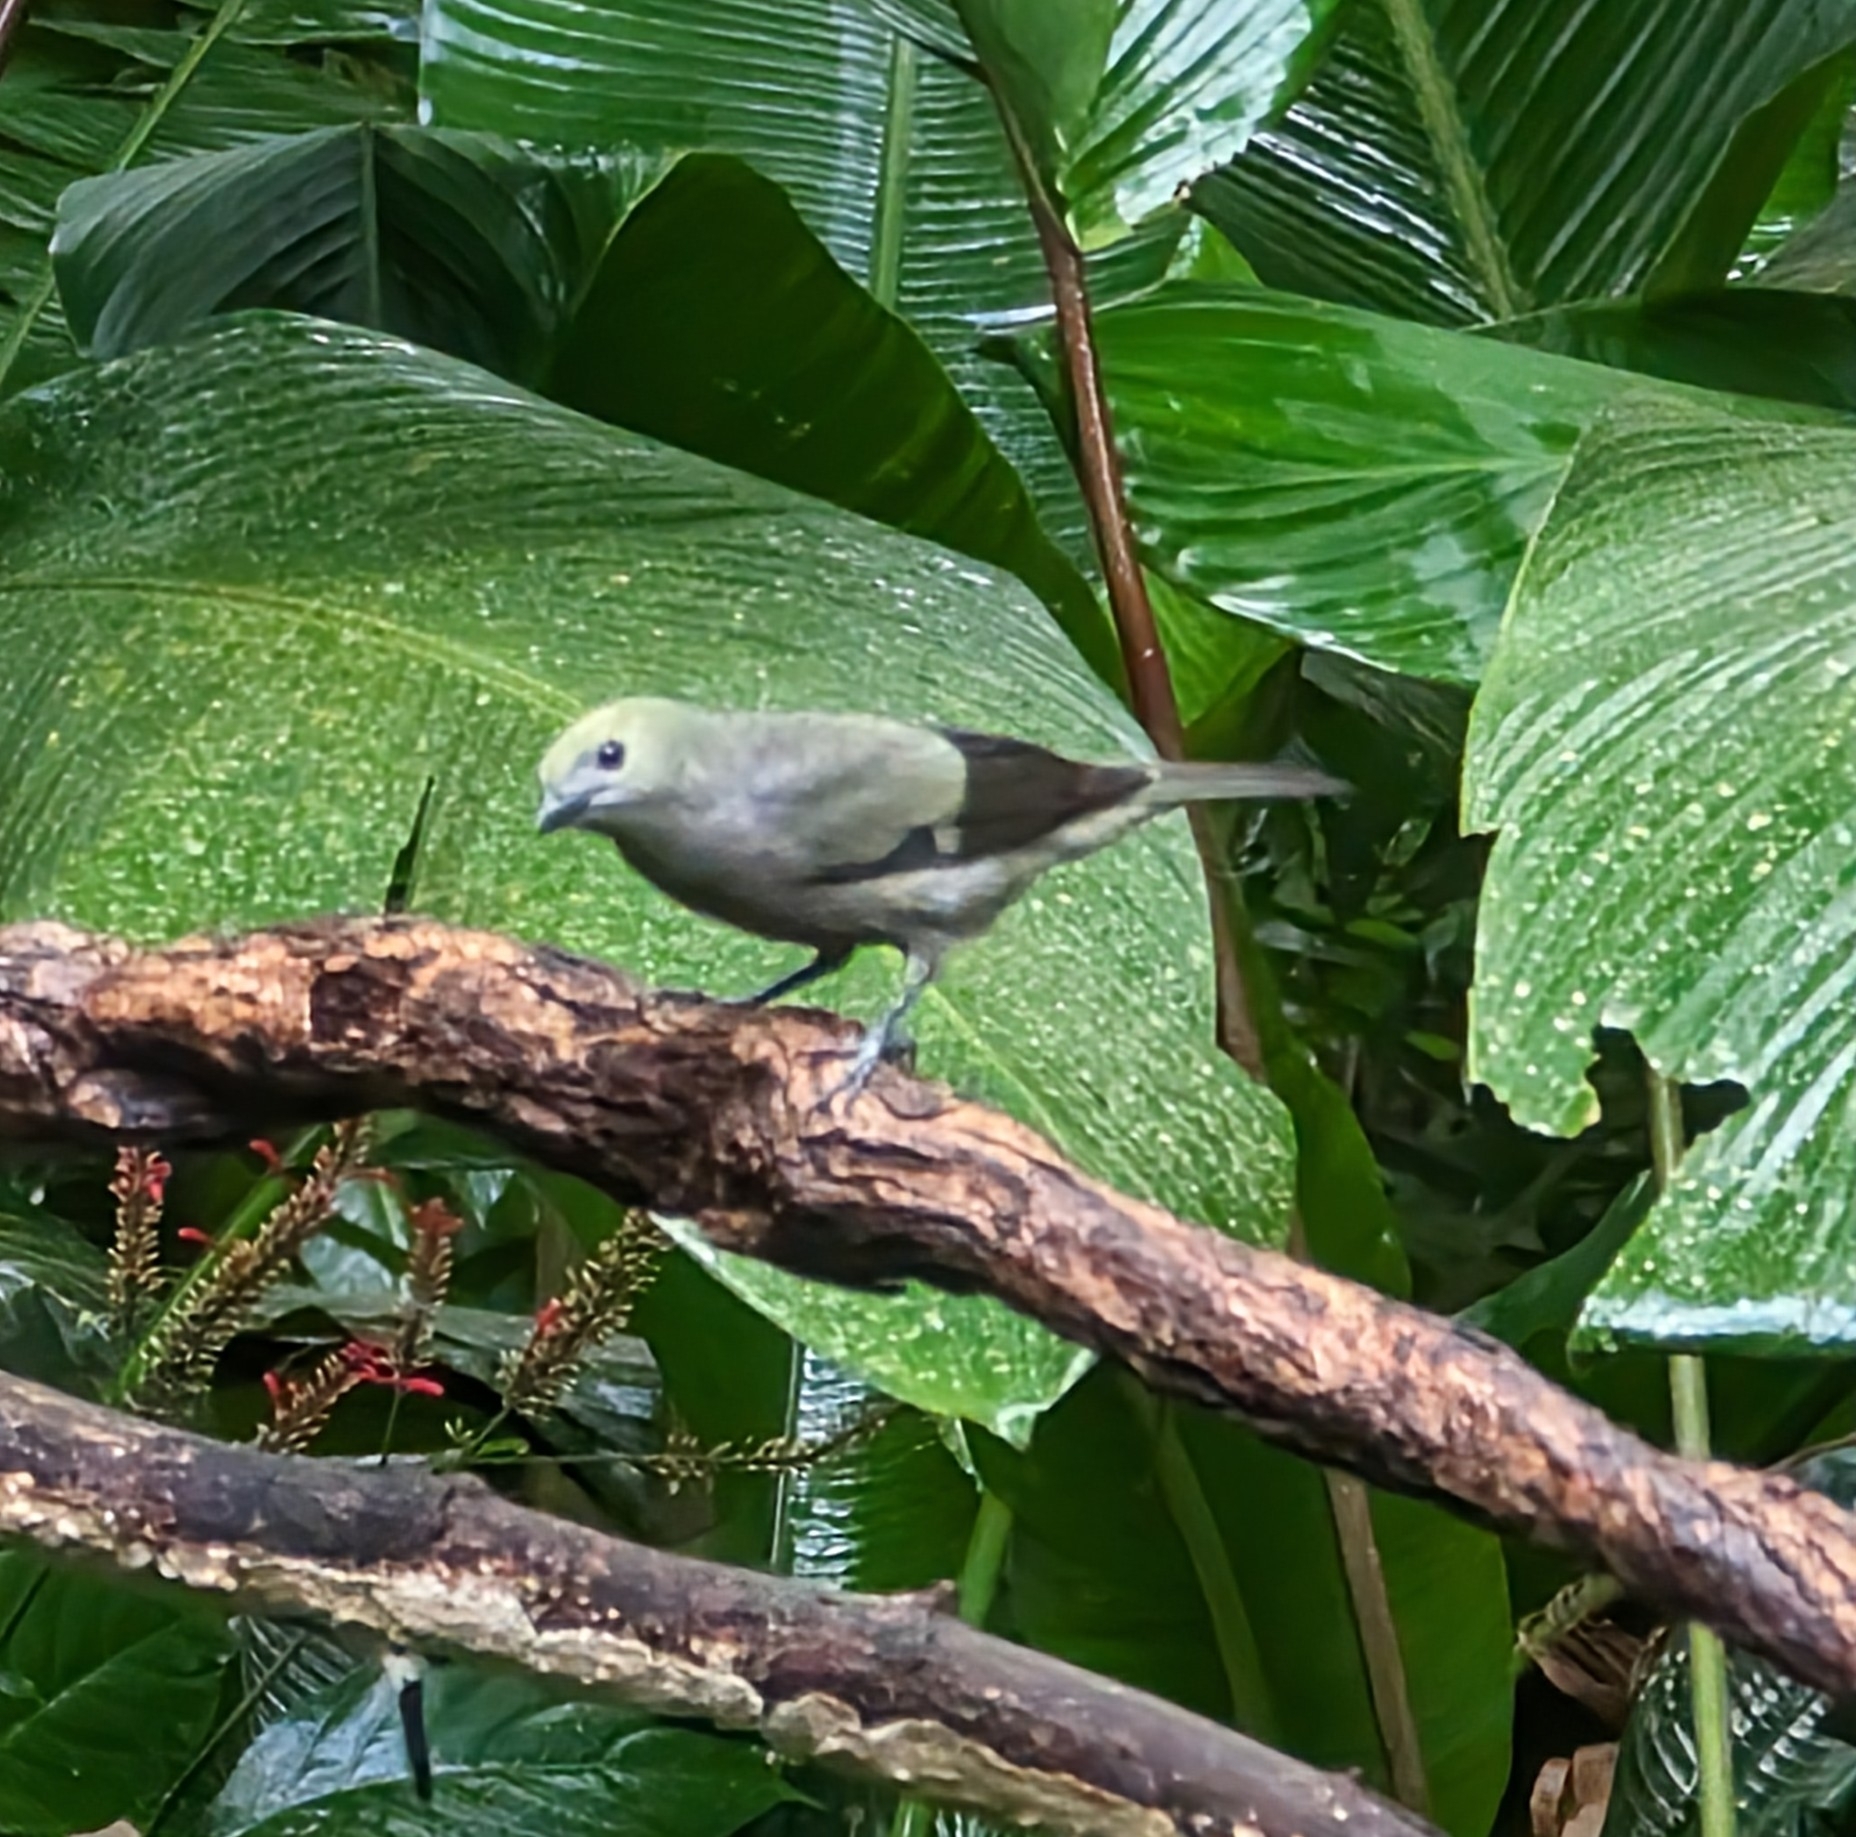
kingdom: Animalia
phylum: Chordata
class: Aves
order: Passeriformes
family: Thraupidae
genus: Thraupis
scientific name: Thraupis palmarum
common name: Palm tanager
